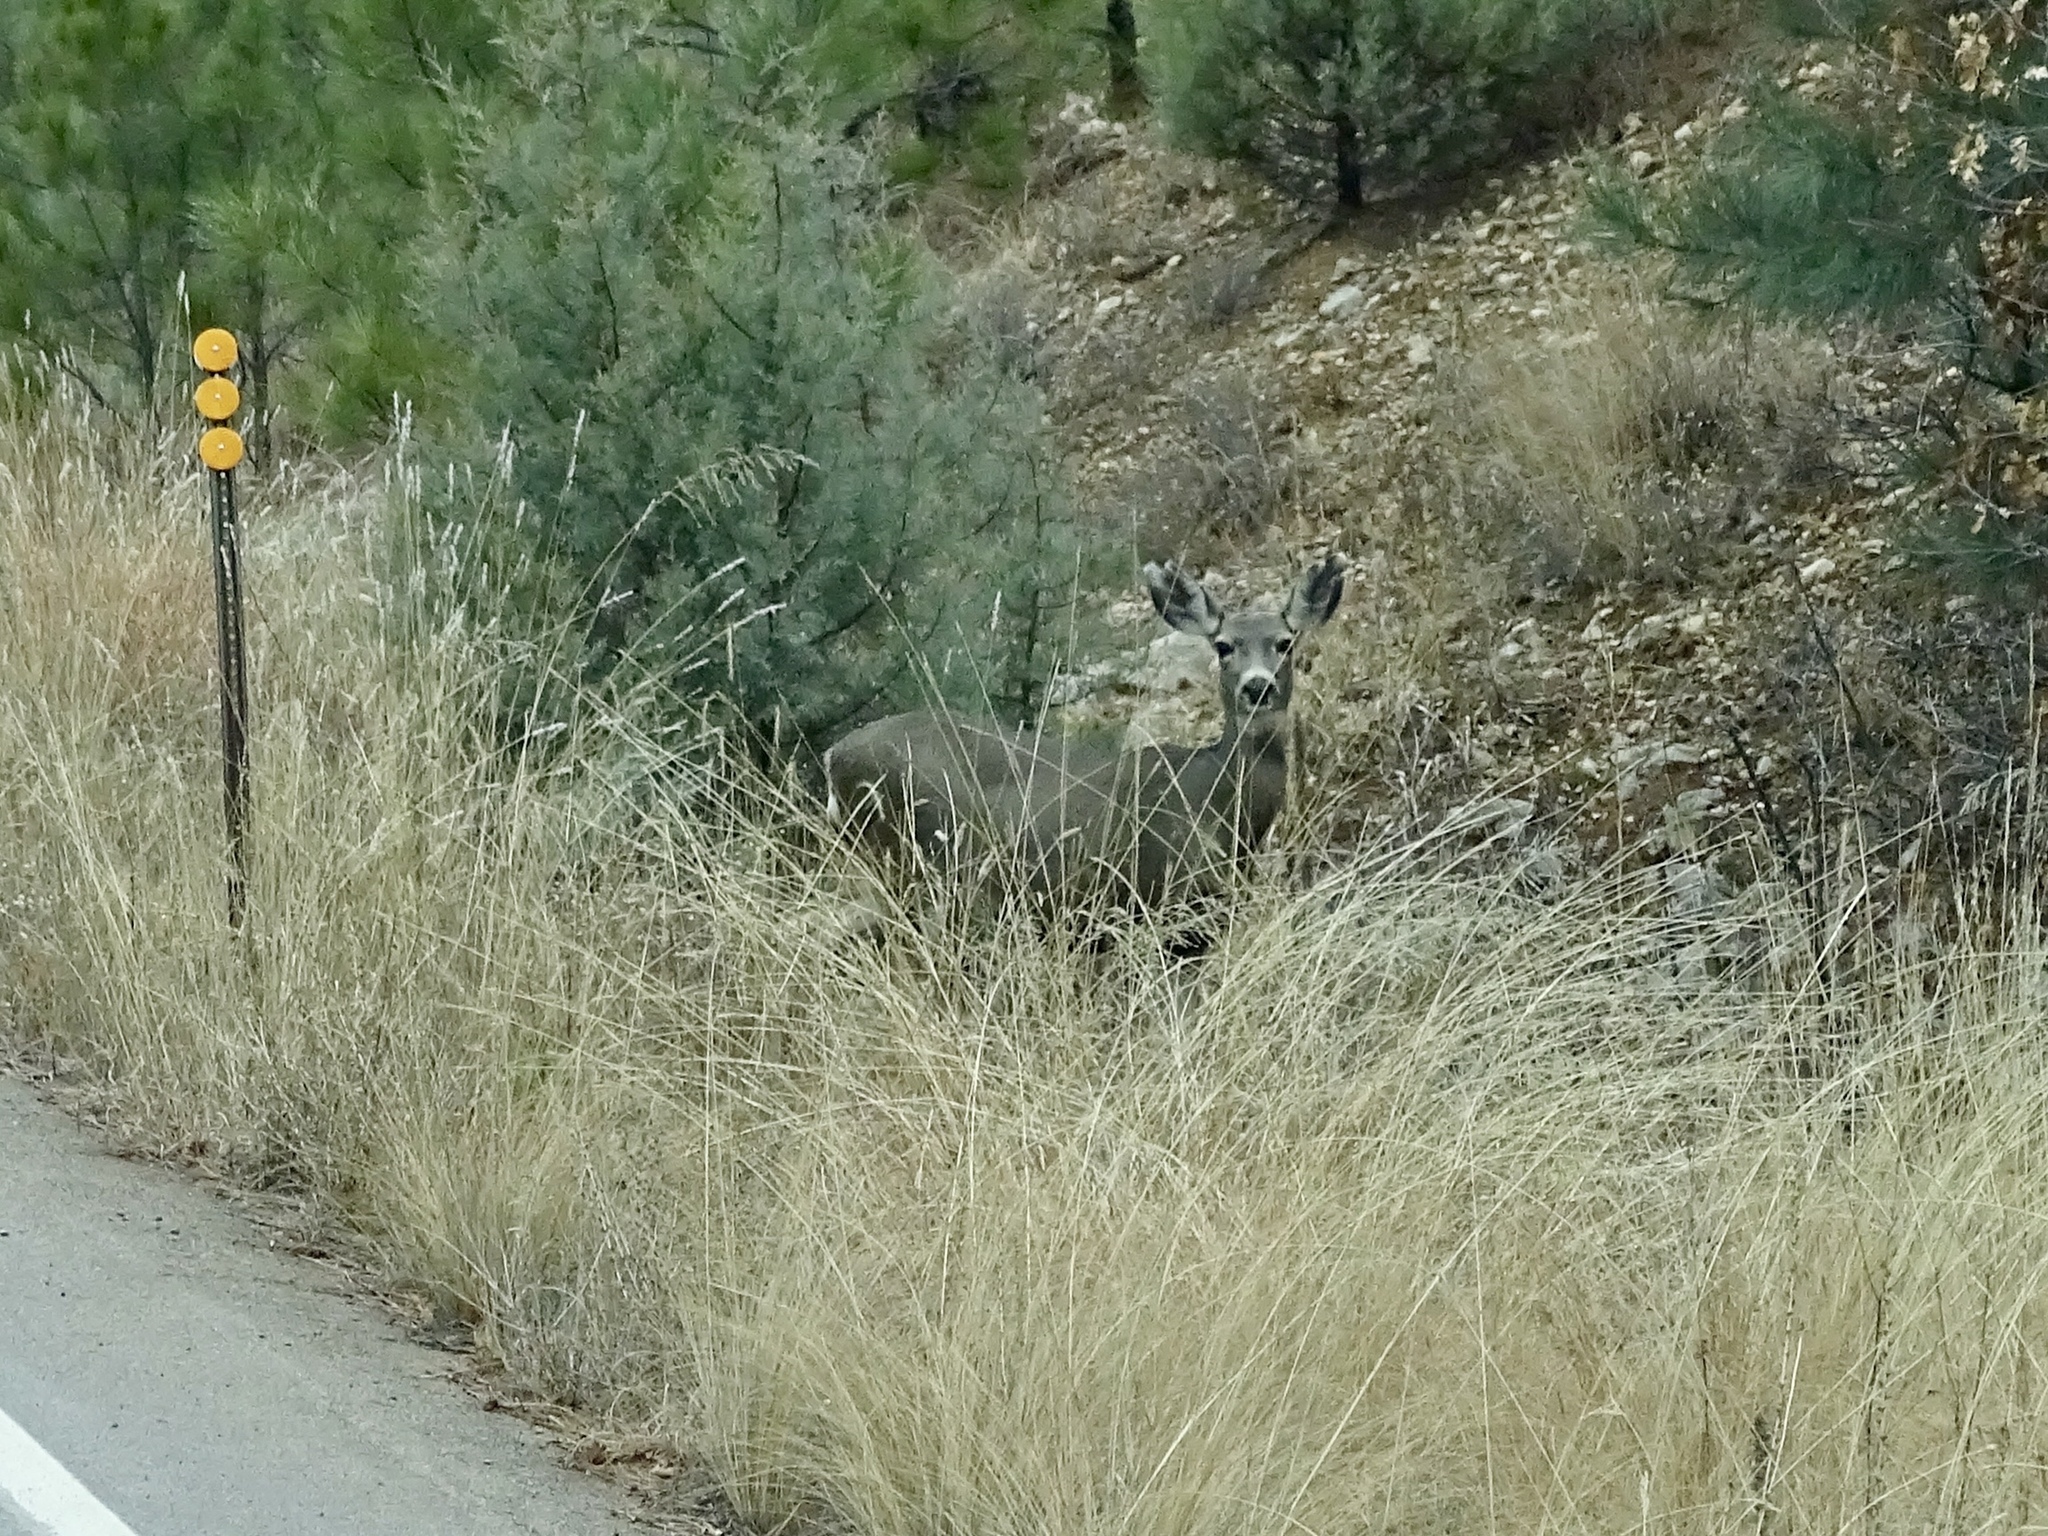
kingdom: Animalia
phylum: Chordata
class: Mammalia
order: Artiodactyla
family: Cervidae
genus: Odocoileus
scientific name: Odocoileus hemionus
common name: Mule deer
